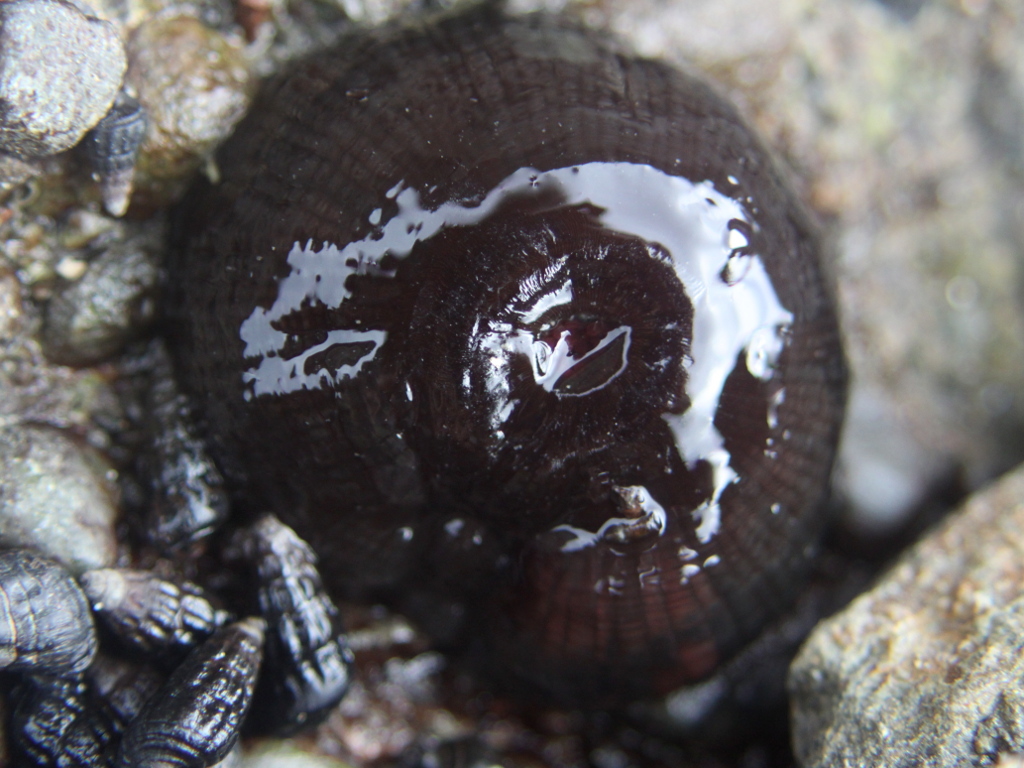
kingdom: Animalia
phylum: Cnidaria
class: Anthozoa
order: Actiniaria
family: Actiniidae
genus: Actinia
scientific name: Actinia tenebrosa
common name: Waratah anemone
